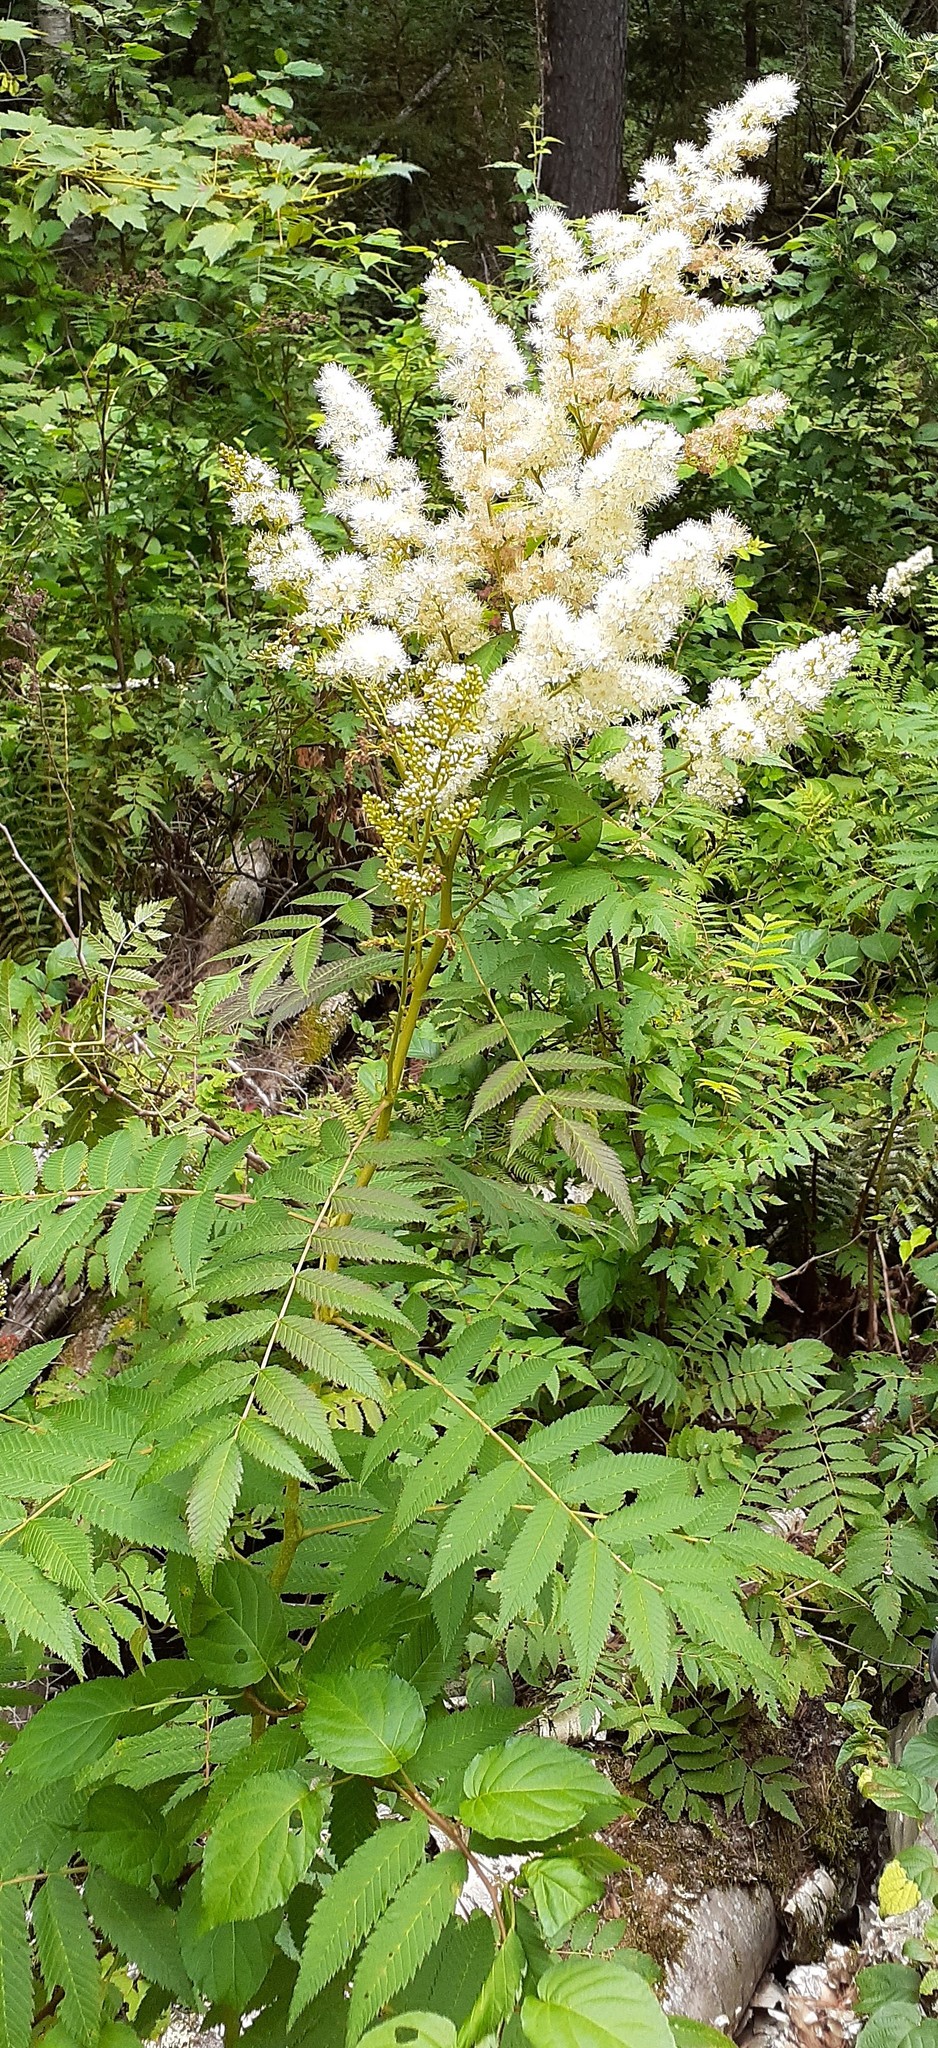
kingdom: Plantae
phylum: Tracheophyta
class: Magnoliopsida
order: Rosales
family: Rosaceae
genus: Sorbaria
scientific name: Sorbaria sorbifolia
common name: False spiraea
